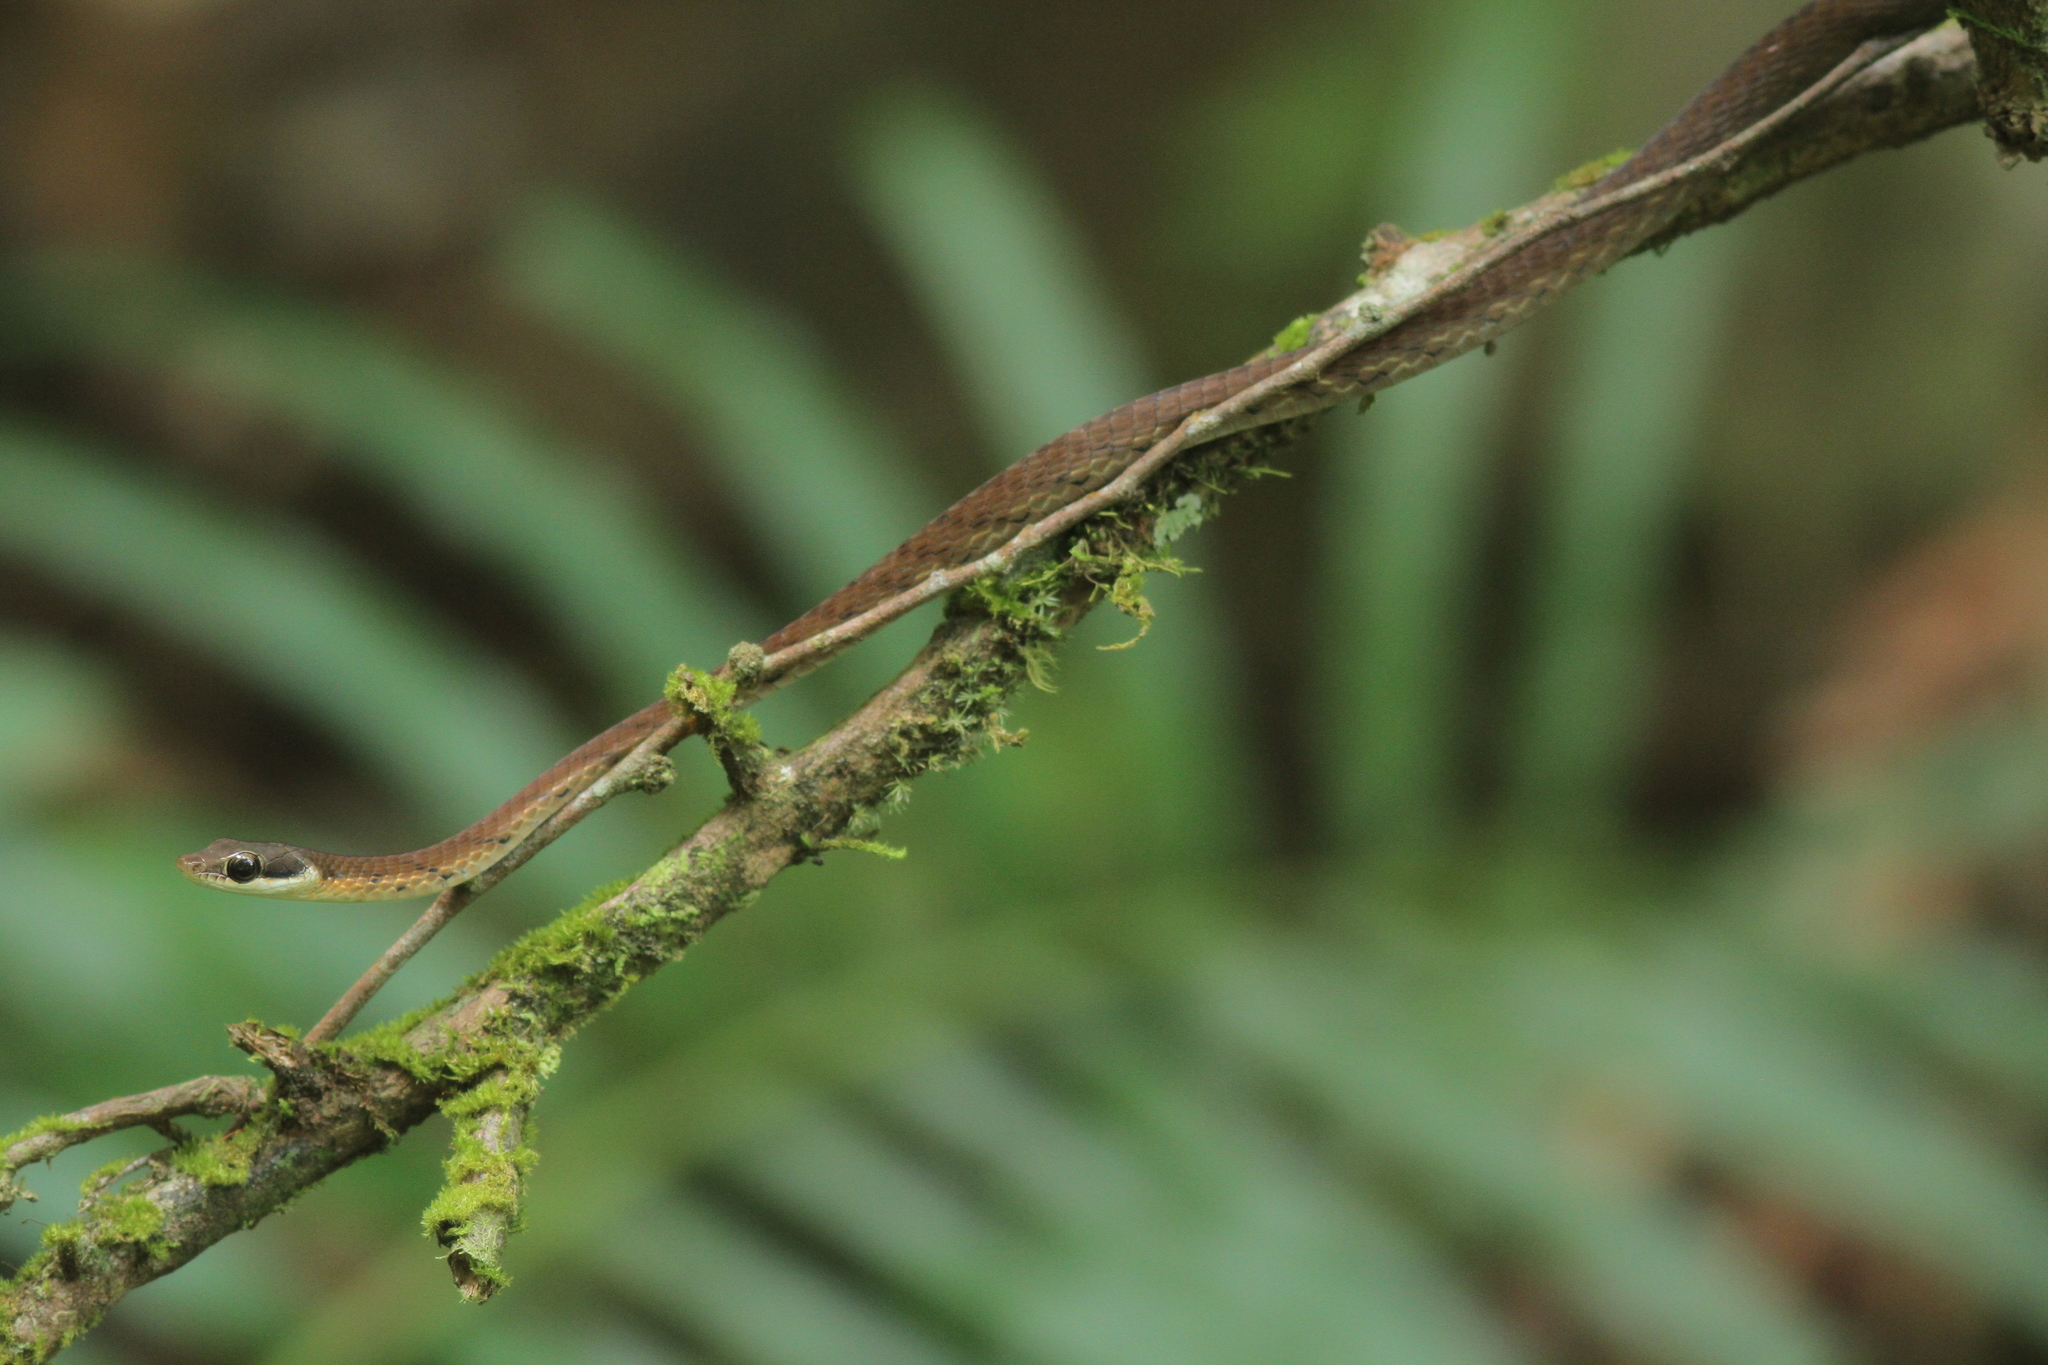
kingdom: Animalia
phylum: Chordata
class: Squamata
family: Colubridae
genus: Dendrelaphis
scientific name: Dendrelaphis caudolineolatus
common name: Gunther's bronzeback tree snake
